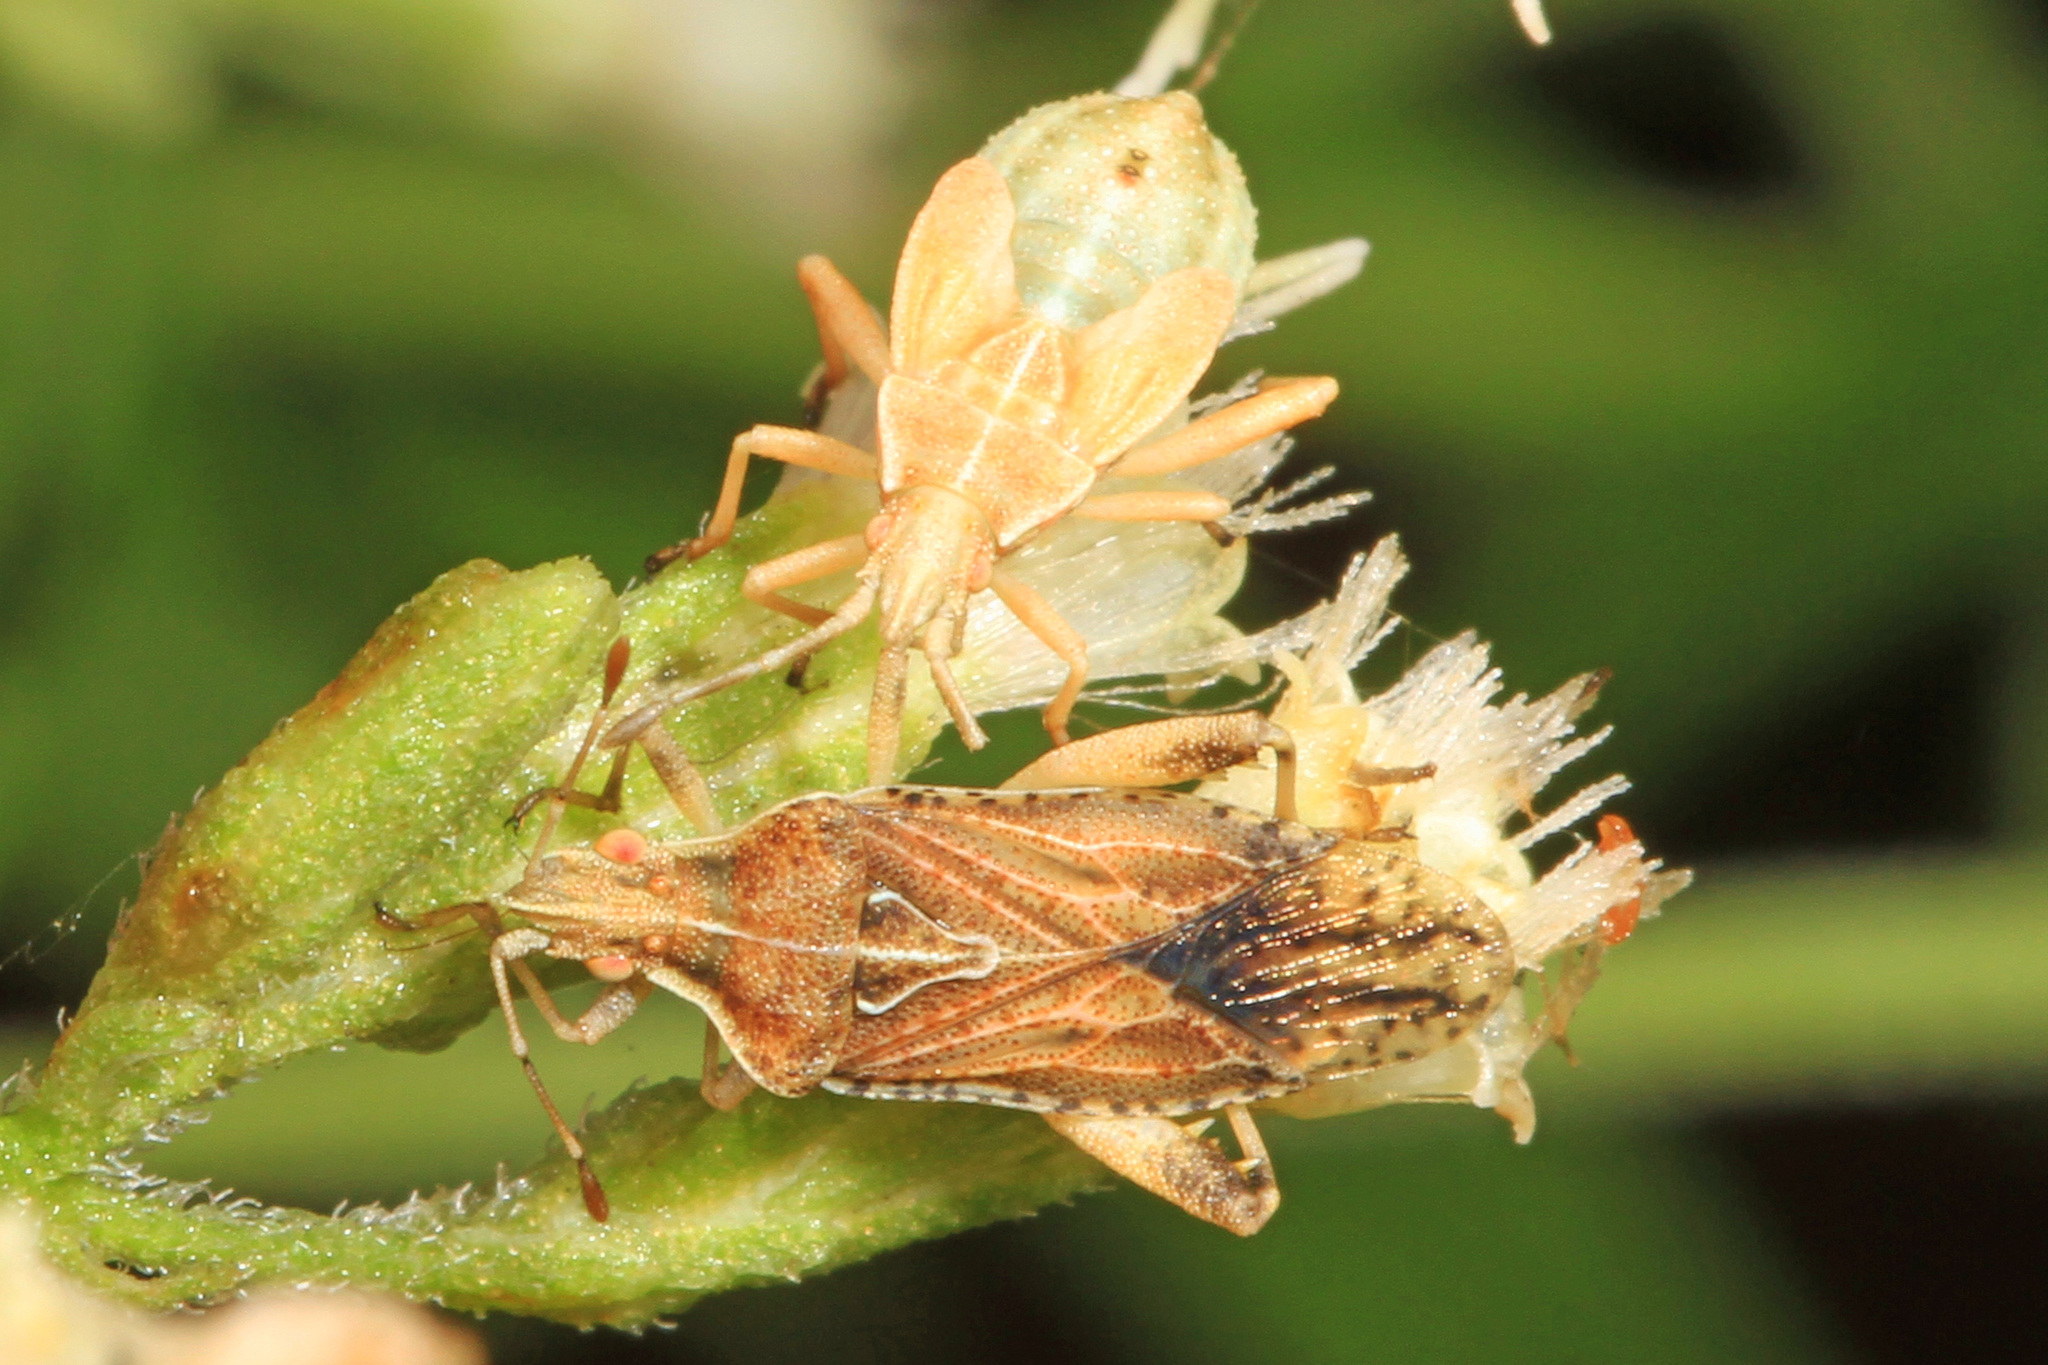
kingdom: Animalia
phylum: Arthropoda
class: Insecta
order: Hemiptera
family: Rhopalidae
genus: Harmostes
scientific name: Harmostes fraterculus
